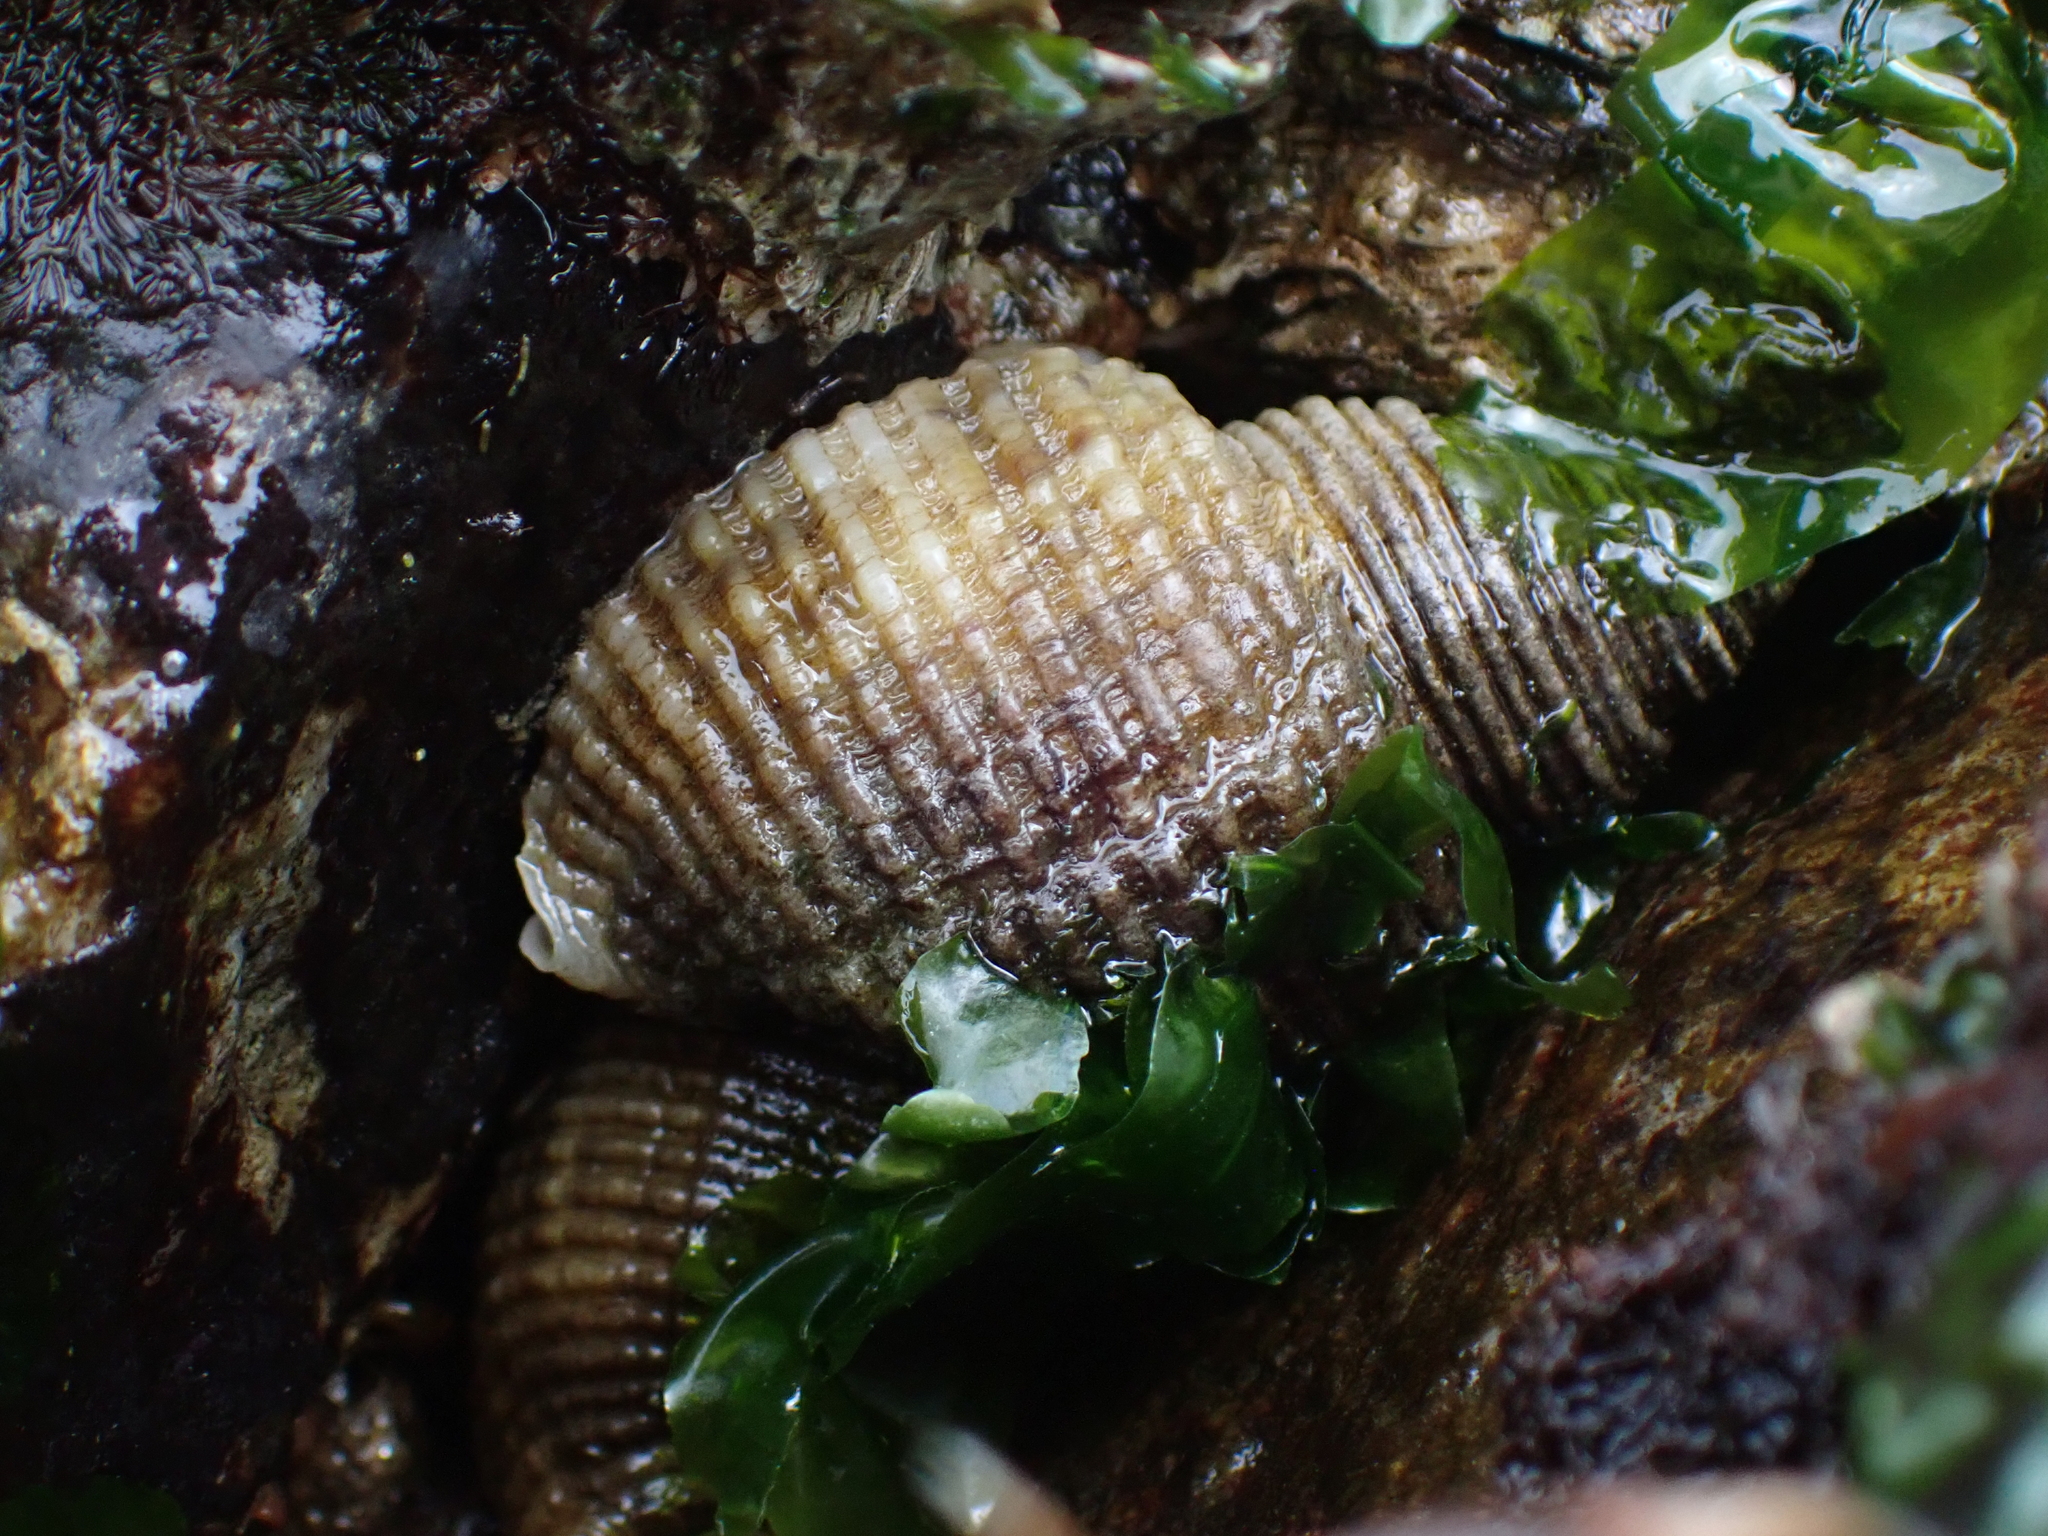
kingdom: Animalia
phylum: Mollusca
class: Gastropoda
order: Neogastropoda
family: Muricidae
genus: Nucella
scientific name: Nucella canaliculata
